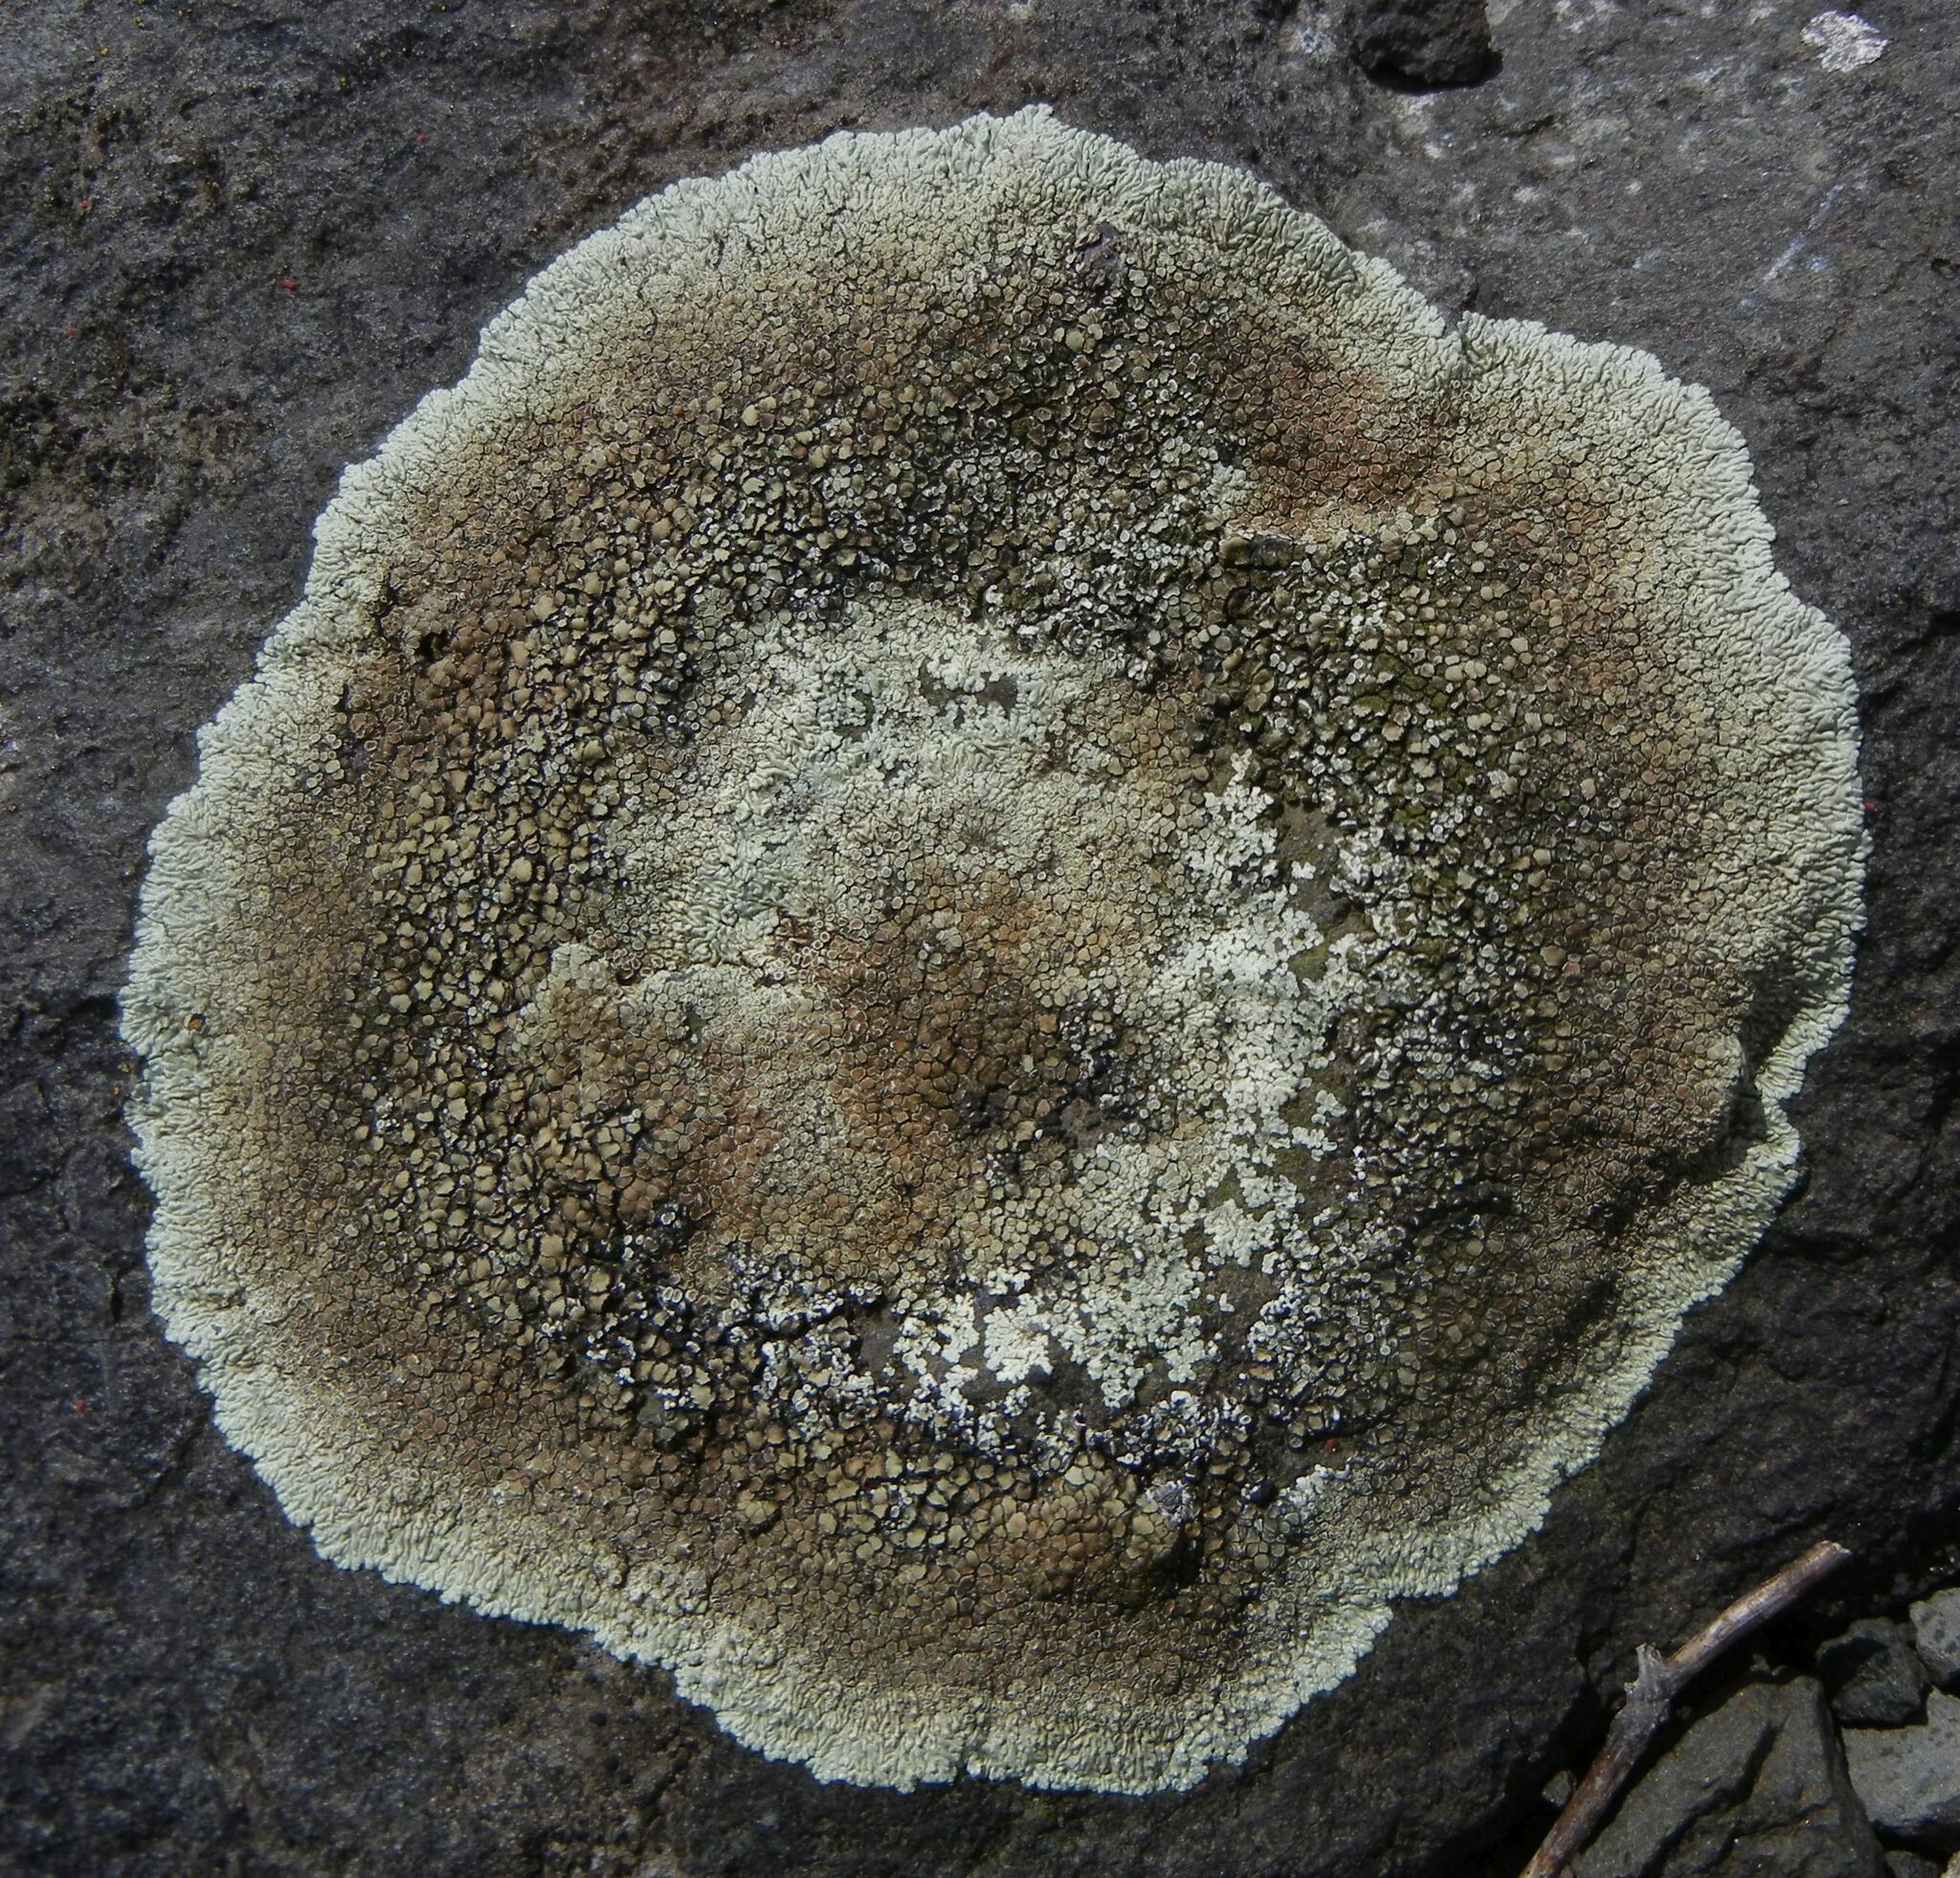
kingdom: Fungi
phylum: Ascomycota
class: Lecanoromycetes
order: Lecanorales
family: Lecanoraceae
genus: Protoparmeliopsis
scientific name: Protoparmeliopsis muralis
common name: Stonewall rim lichen
